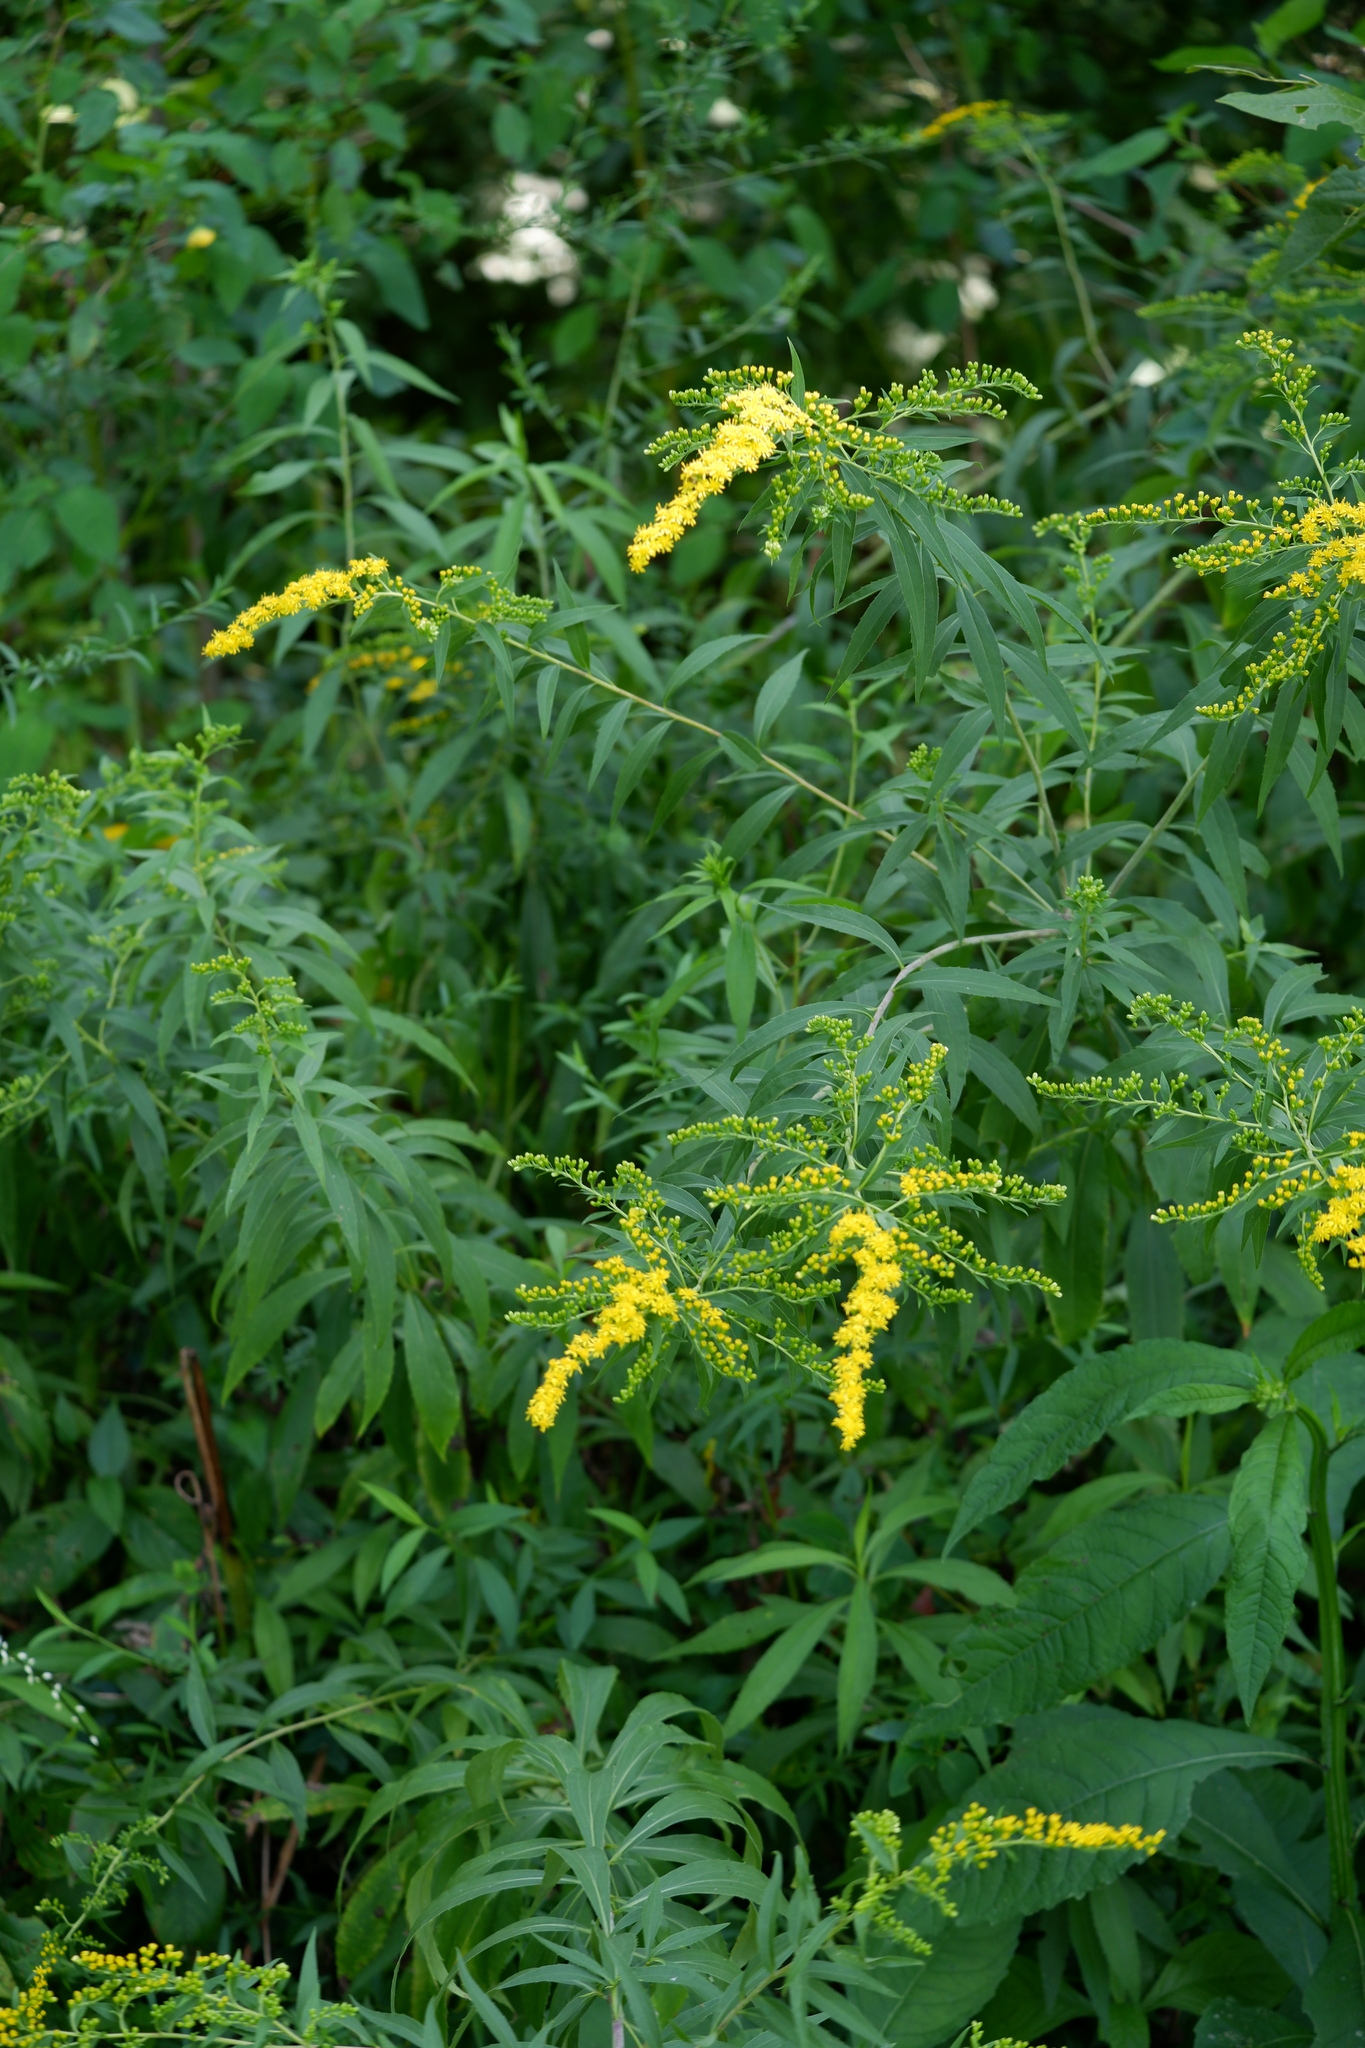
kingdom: Plantae
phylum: Tracheophyta
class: Magnoliopsida
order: Asterales
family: Asteraceae
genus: Solidago
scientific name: Solidago gigantea
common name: Giant goldenrod
